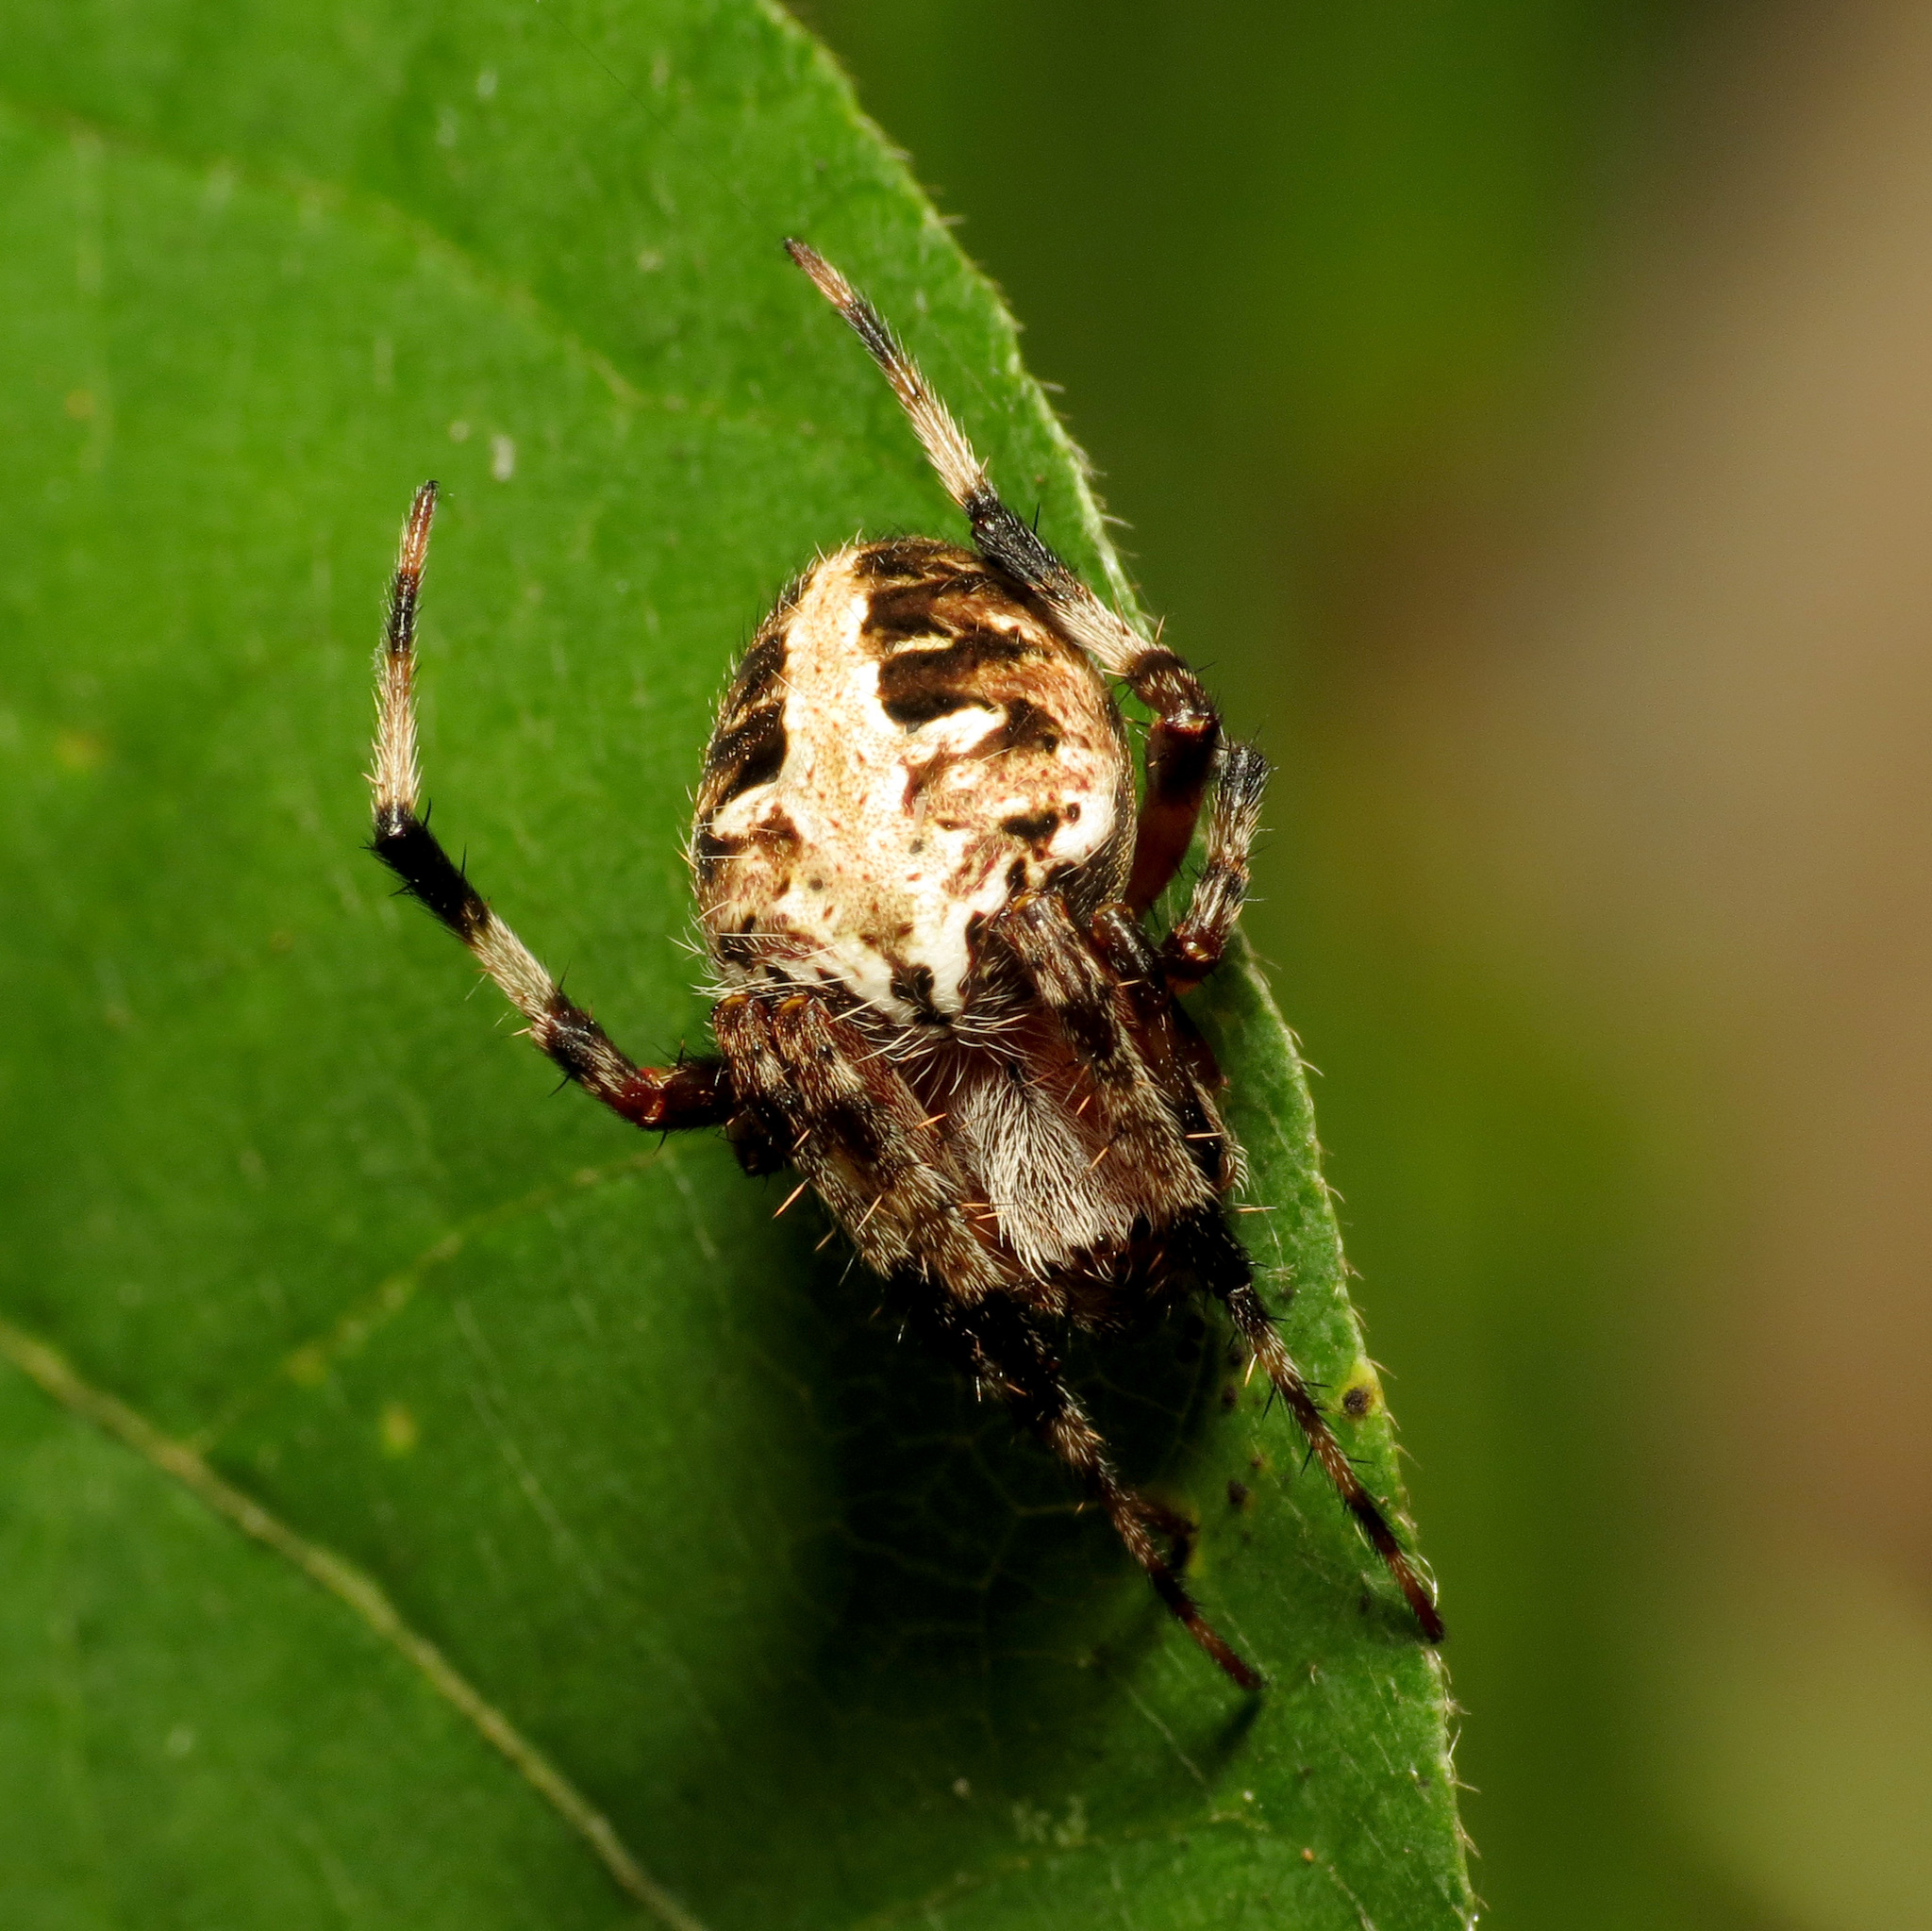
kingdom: Animalia
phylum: Arthropoda
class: Arachnida
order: Araneae
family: Araneidae
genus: Neoscona
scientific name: Neoscona domiciliorum
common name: Red-femured spotted orbweaver
